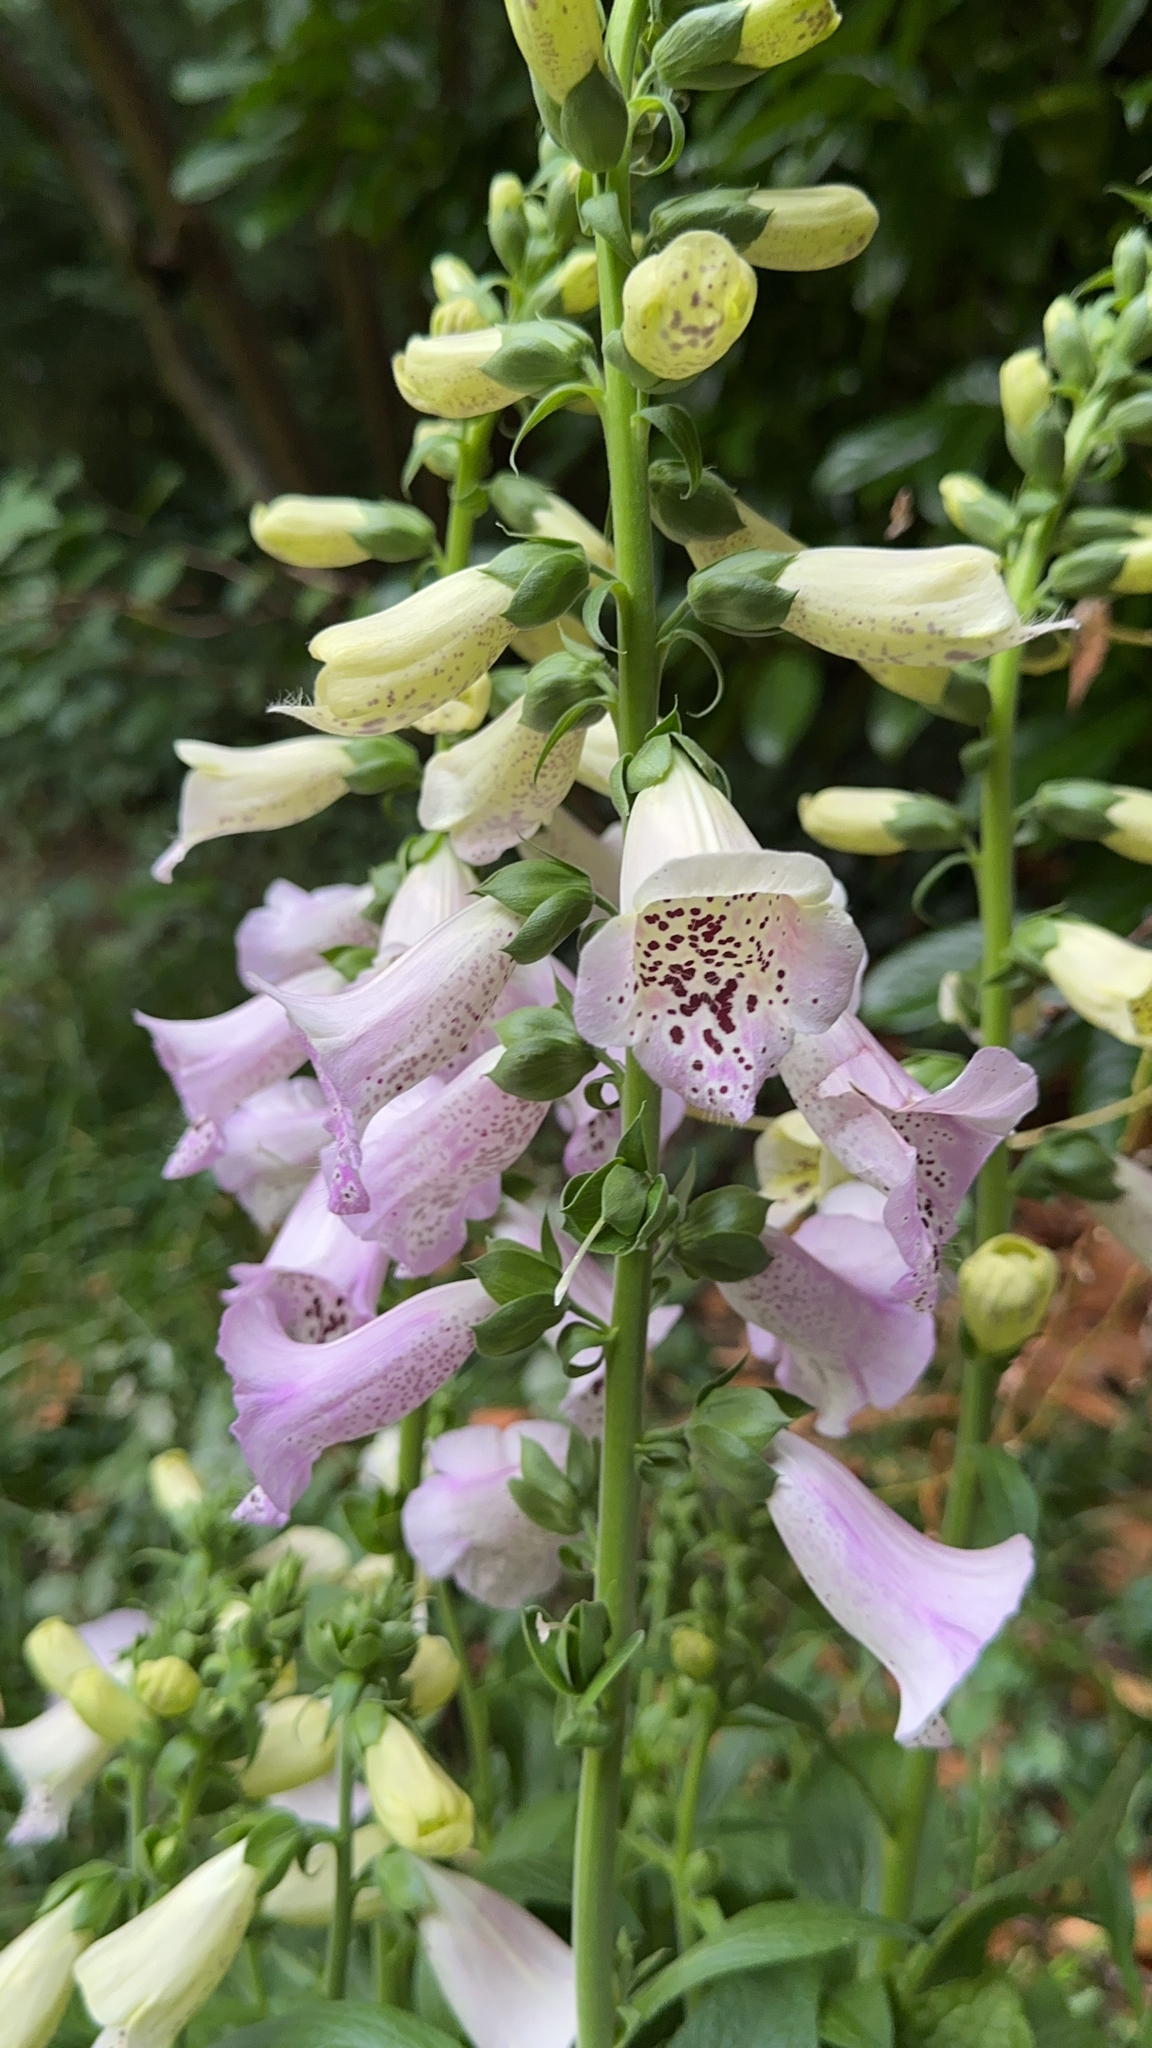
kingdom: Plantae
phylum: Tracheophyta
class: Magnoliopsida
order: Lamiales
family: Plantaginaceae
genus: Digitalis
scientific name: Digitalis purpurea
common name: Foxglove
